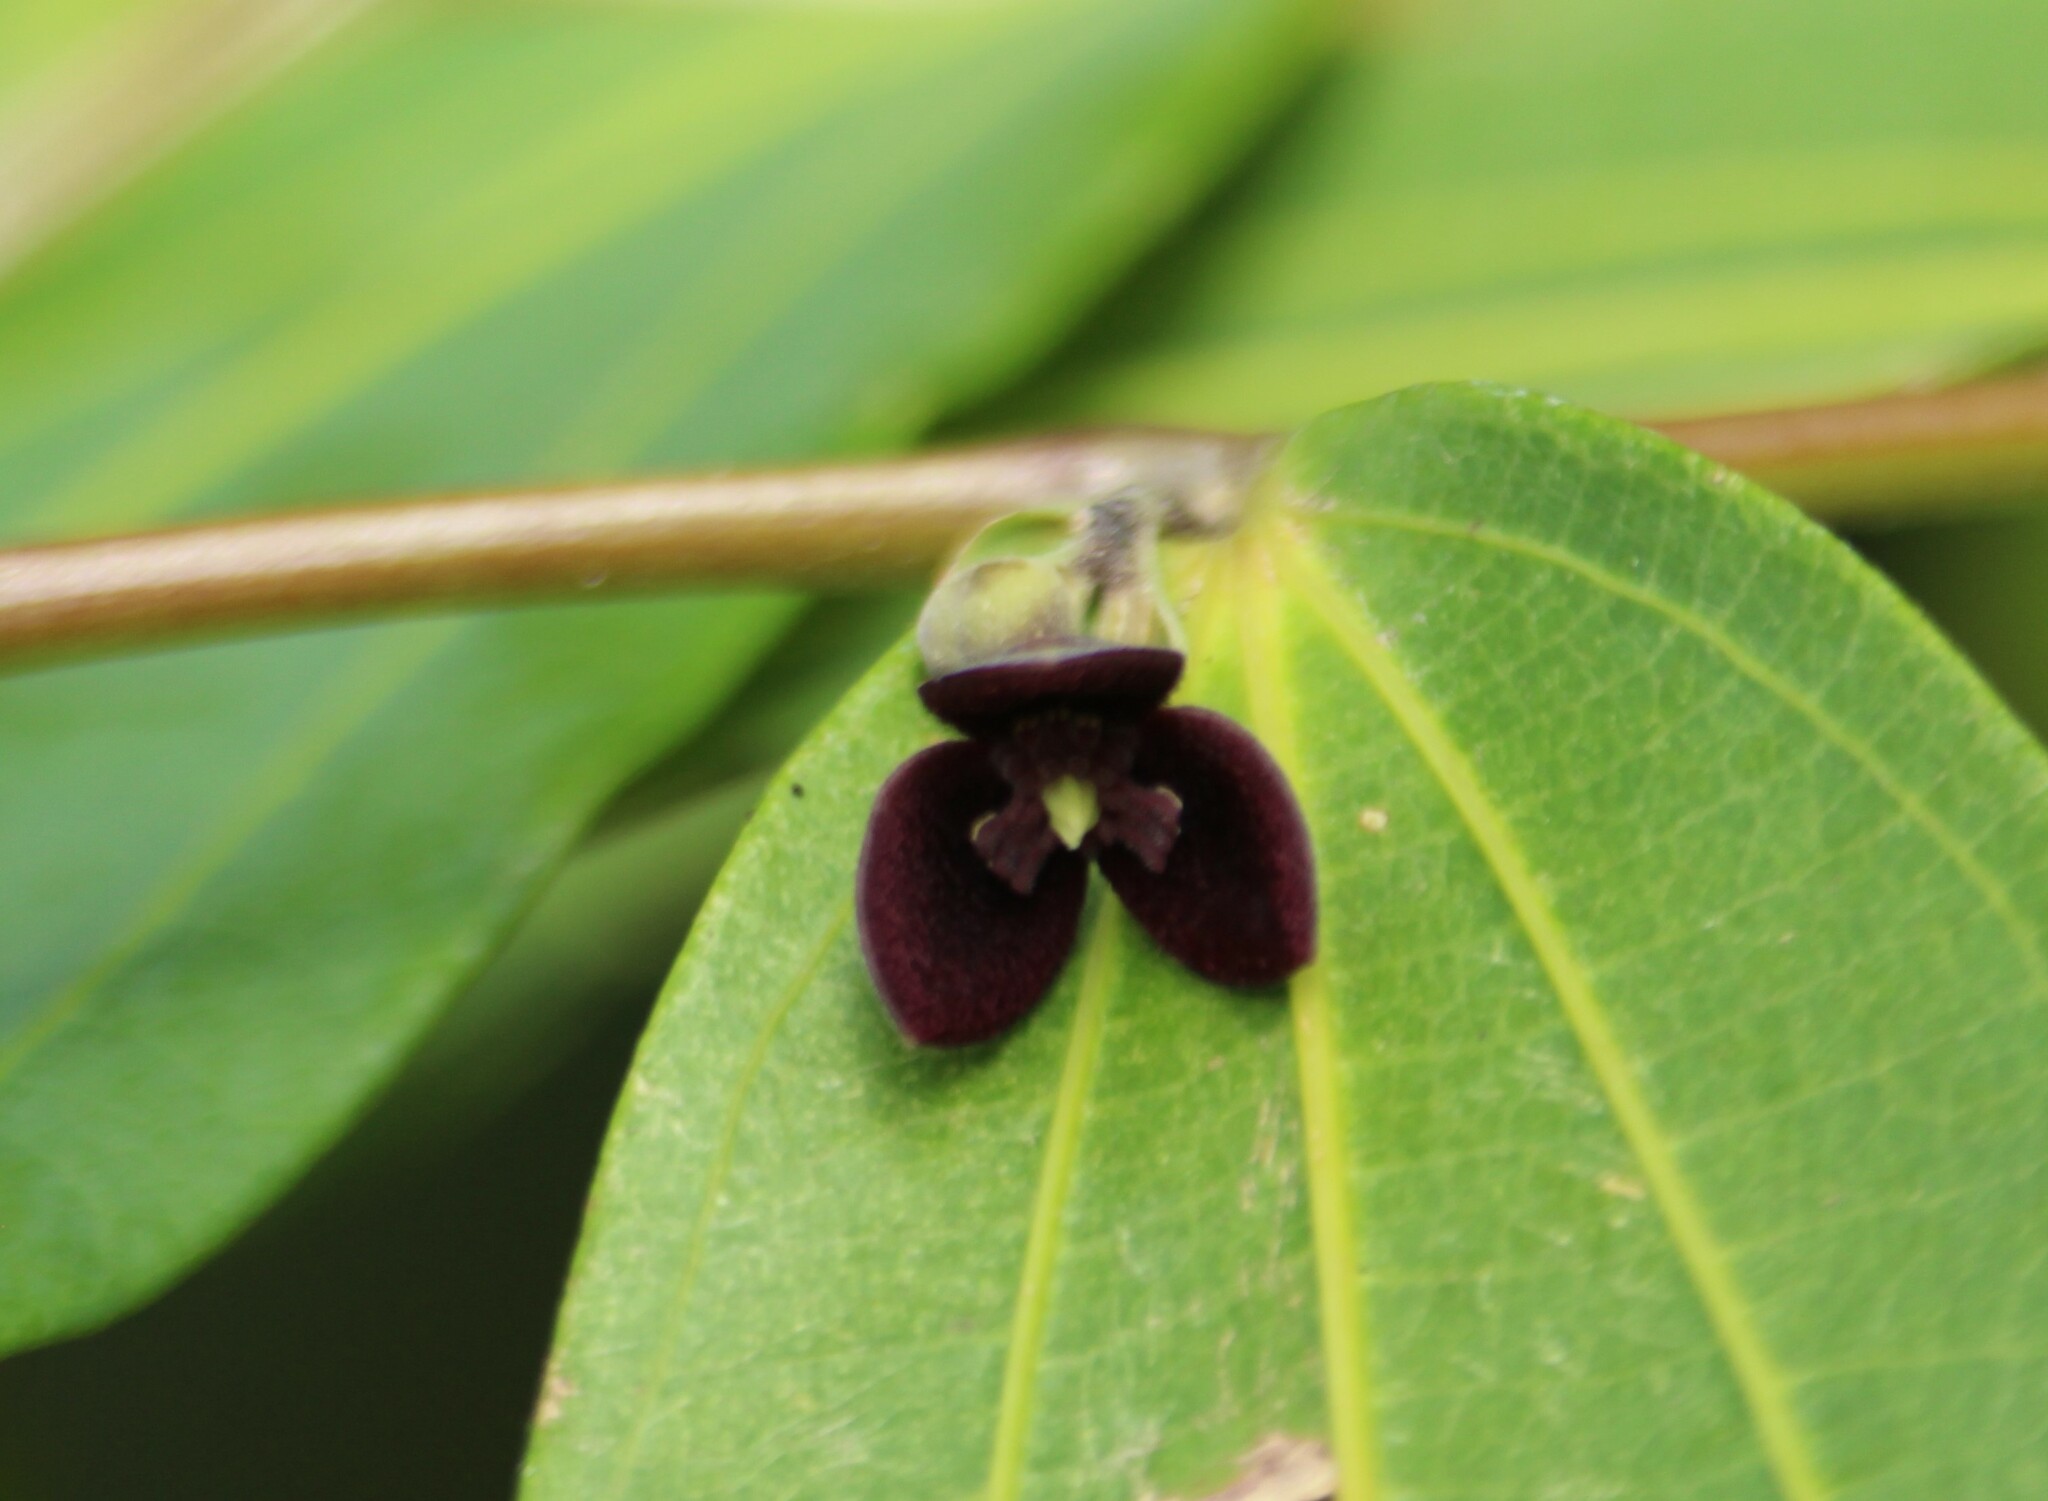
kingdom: Plantae
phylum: Tracheophyta
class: Magnoliopsida
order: Piperales
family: Aristolochiaceae
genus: Thottea
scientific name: Thottea siliquosa
